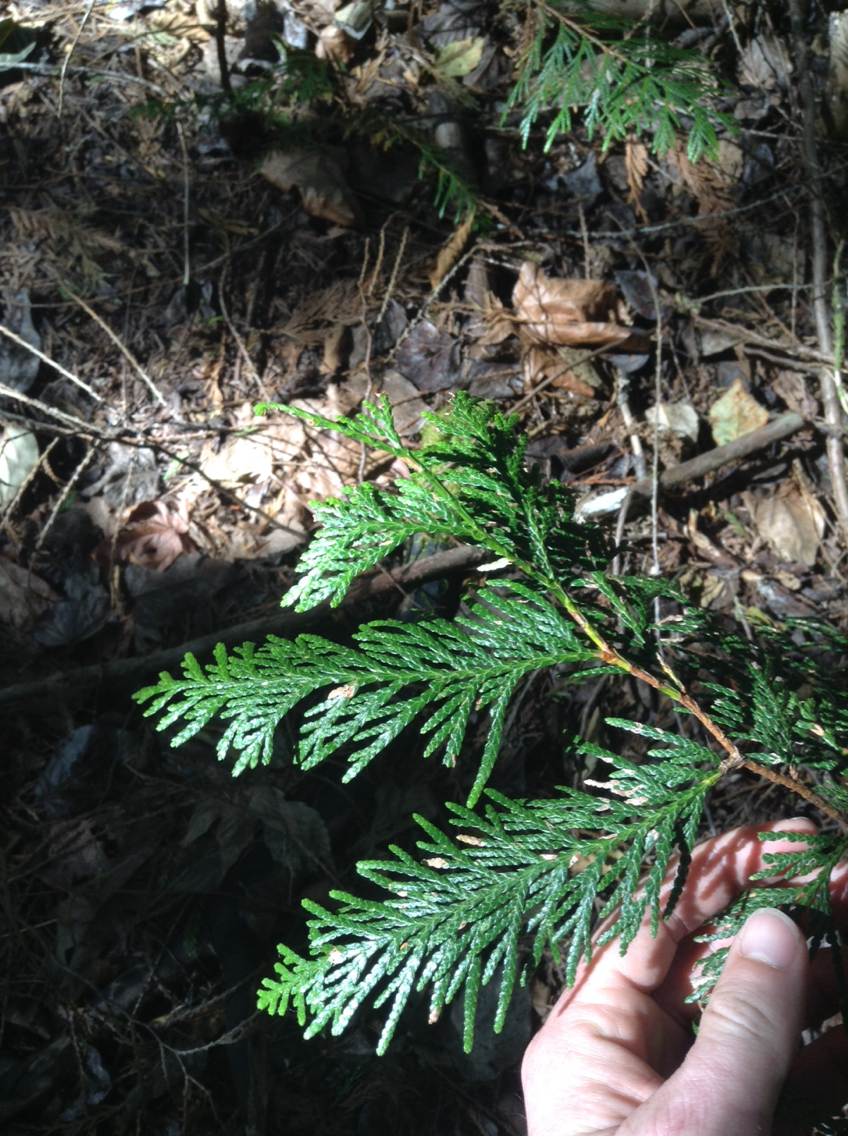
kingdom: Plantae
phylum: Tracheophyta
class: Pinopsida
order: Pinales
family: Cupressaceae
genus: Thuja
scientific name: Thuja plicata
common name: Western red-cedar
